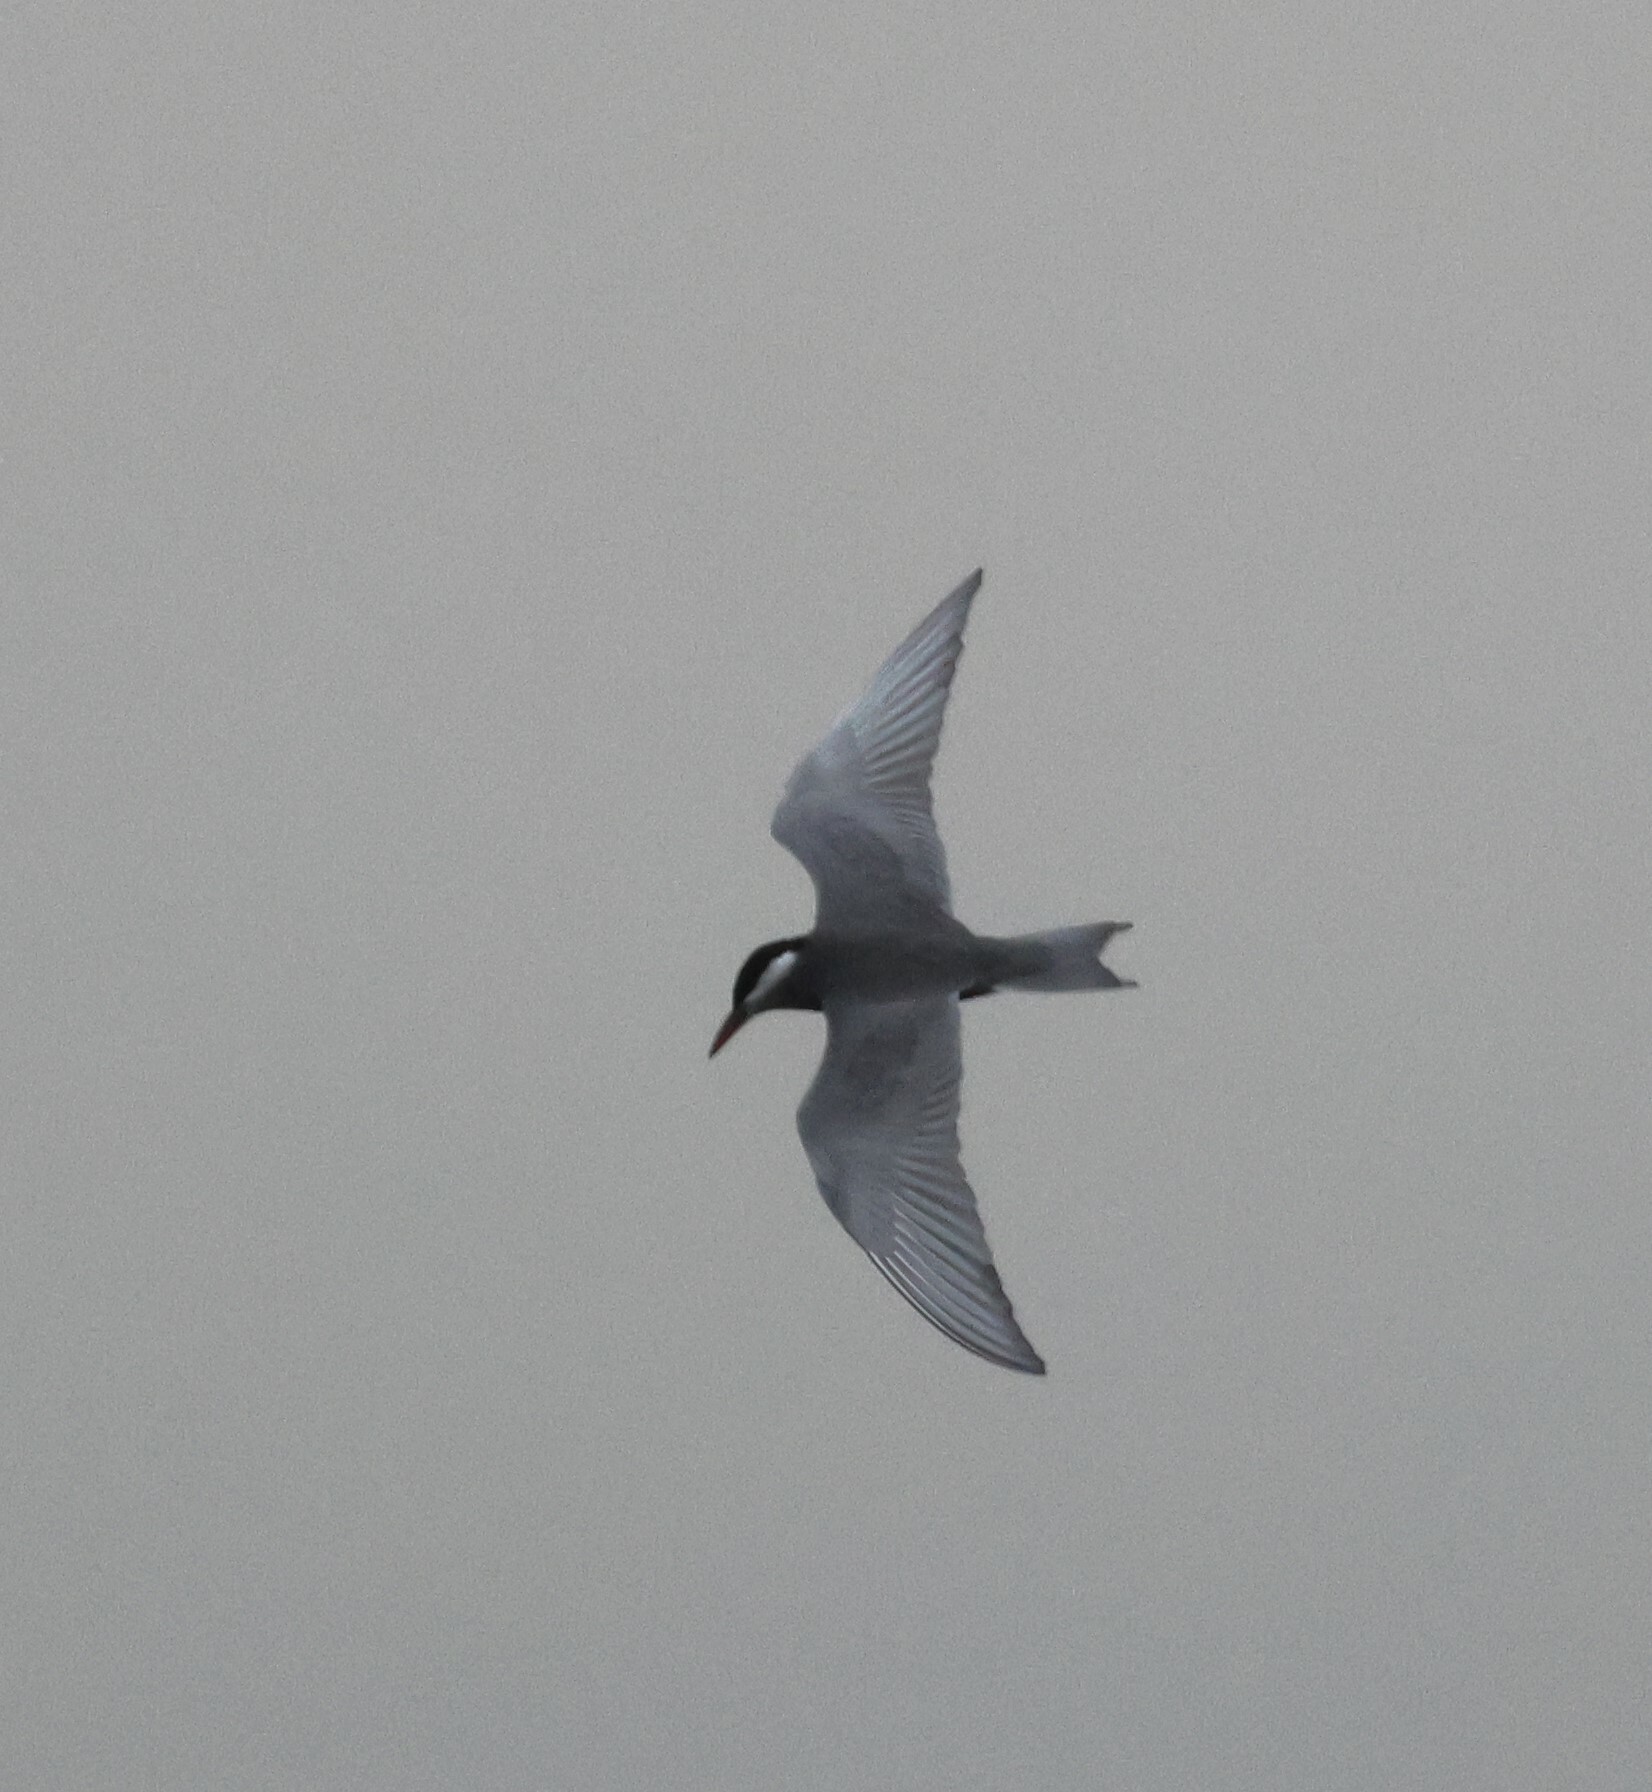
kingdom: Animalia
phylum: Chordata
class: Aves
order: Charadriiformes
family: Laridae
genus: Chlidonias
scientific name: Chlidonias hybrida
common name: Whiskered tern
